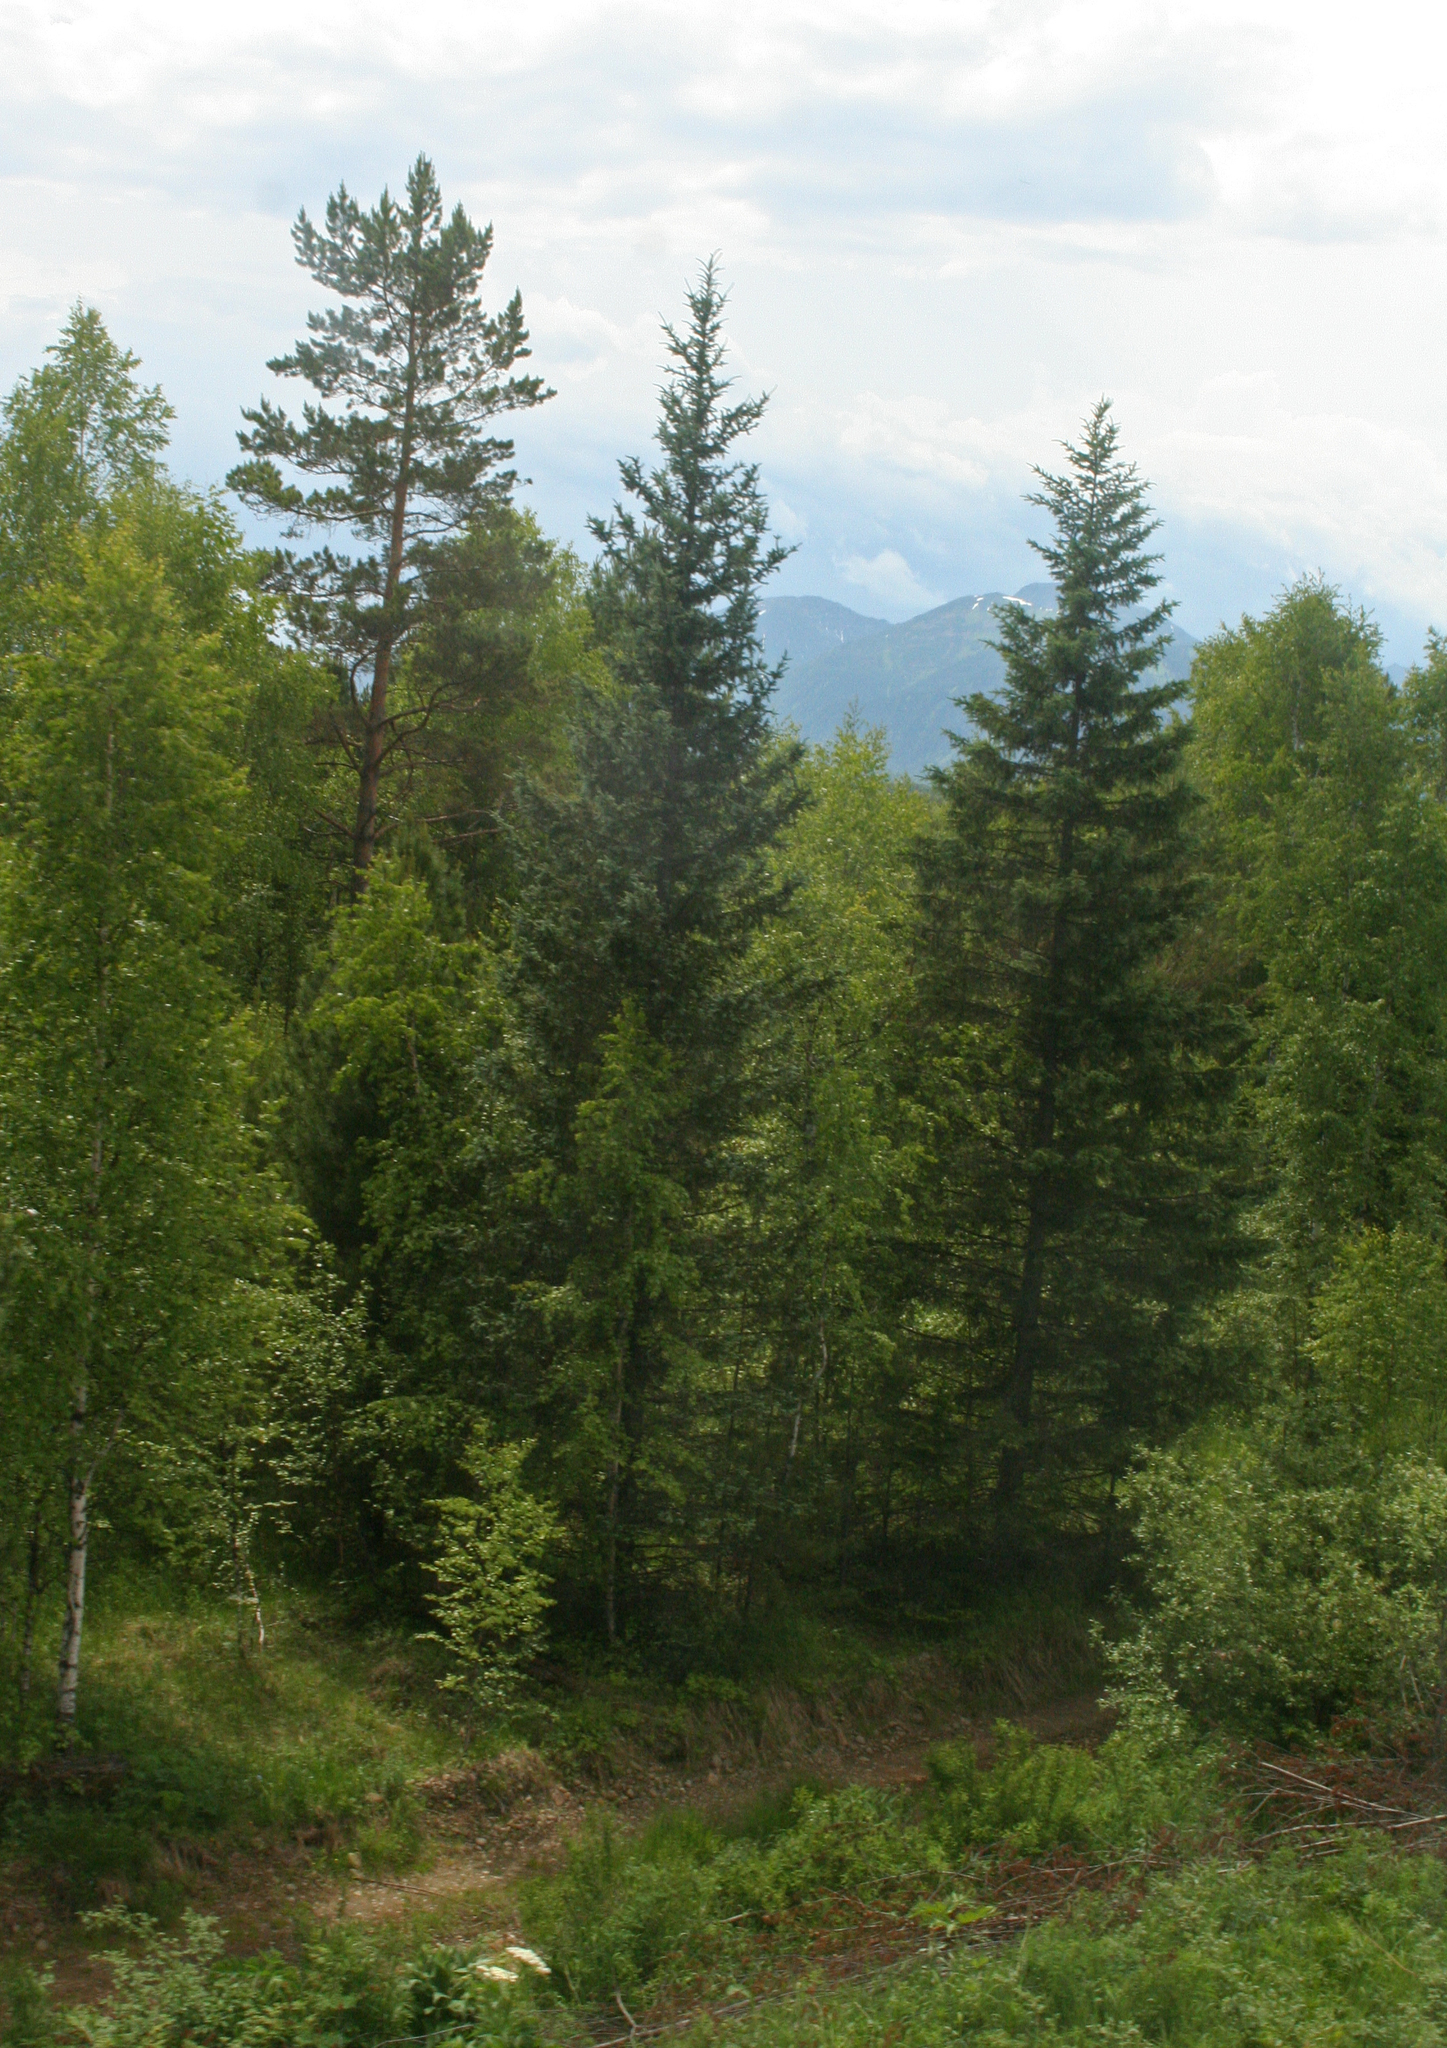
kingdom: Plantae
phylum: Tracheophyta
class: Pinopsida
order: Pinales
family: Pinaceae
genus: Picea
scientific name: Picea obovata
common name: Siberian spruce
